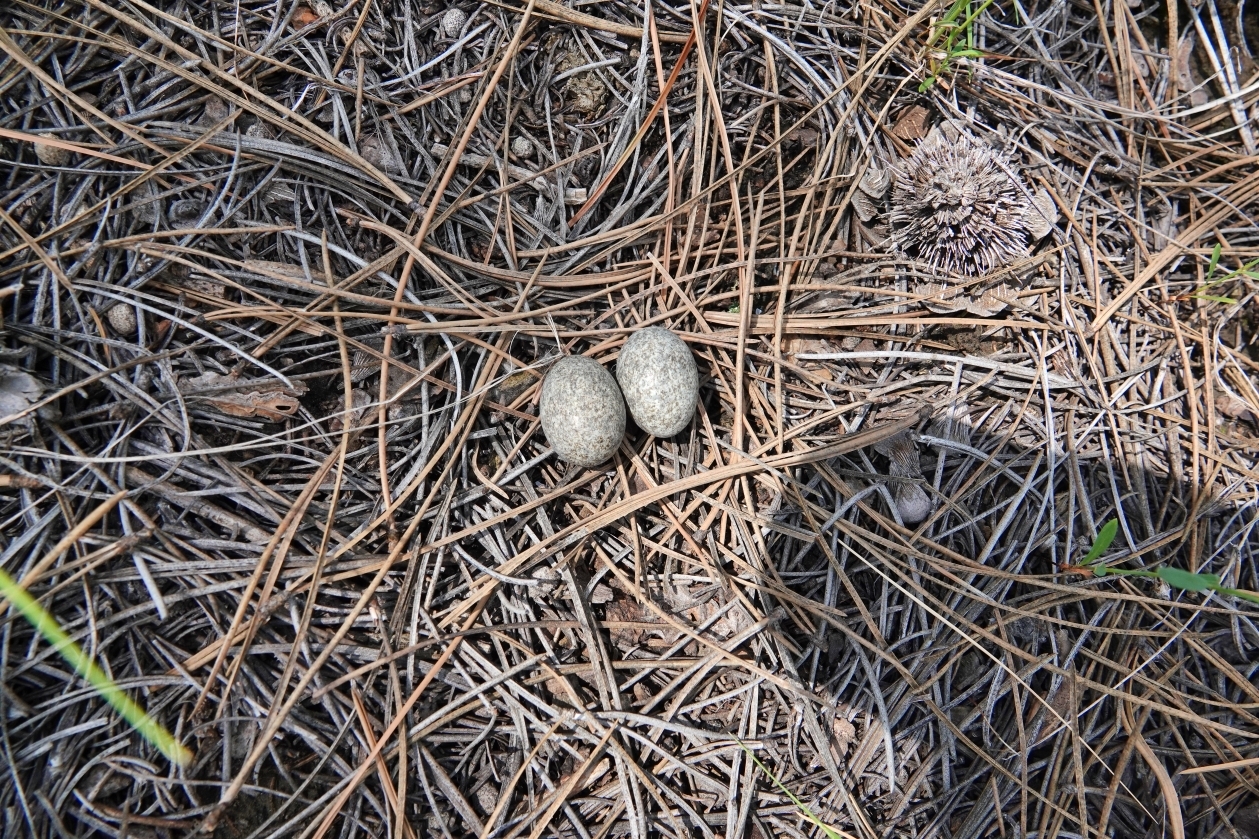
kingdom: Animalia
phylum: Chordata
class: Aves
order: Caprimulgiformes
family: Caprimulgidae
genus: Chordeiles
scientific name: Chordeiles minor
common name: Common nighthawk
